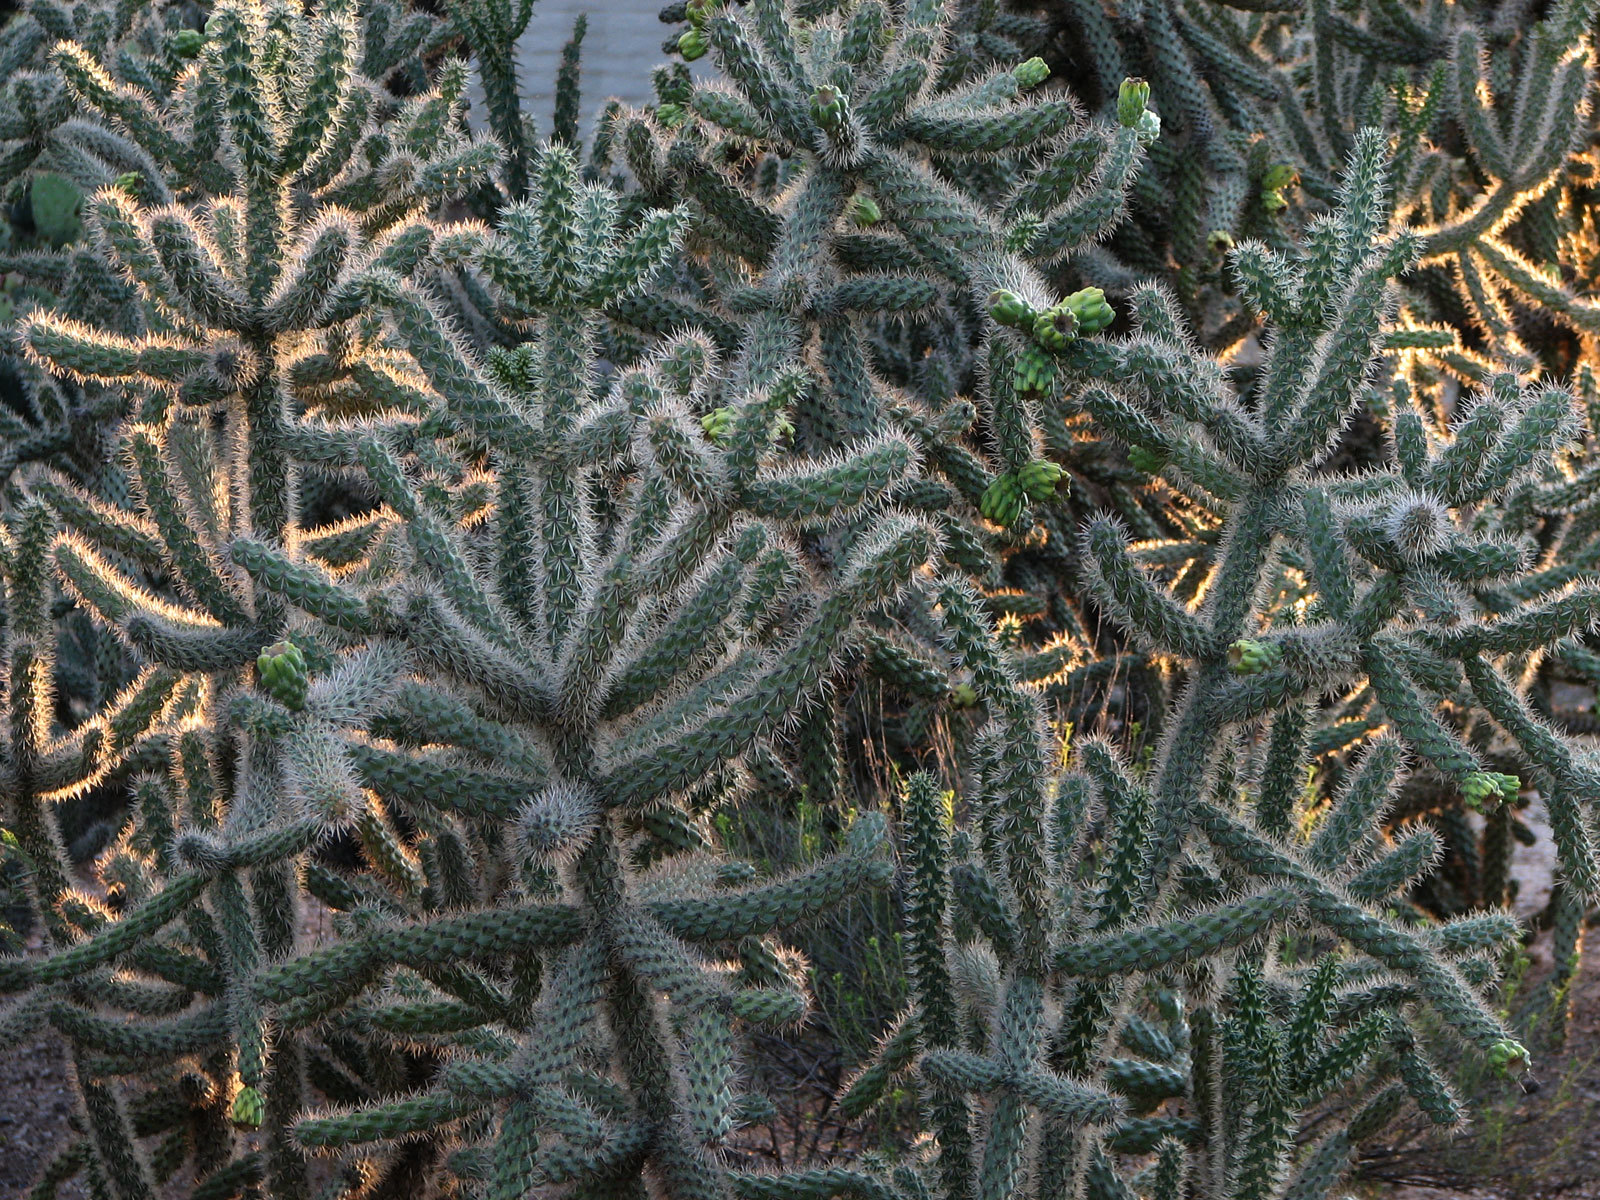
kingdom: Plantae
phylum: Tracheophyta
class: Magnoliopsida
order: Caryophyllales
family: Cactaceae
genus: Cylindropuntia
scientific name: Cylindropuntia imbricata
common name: Candelabrum cactus
